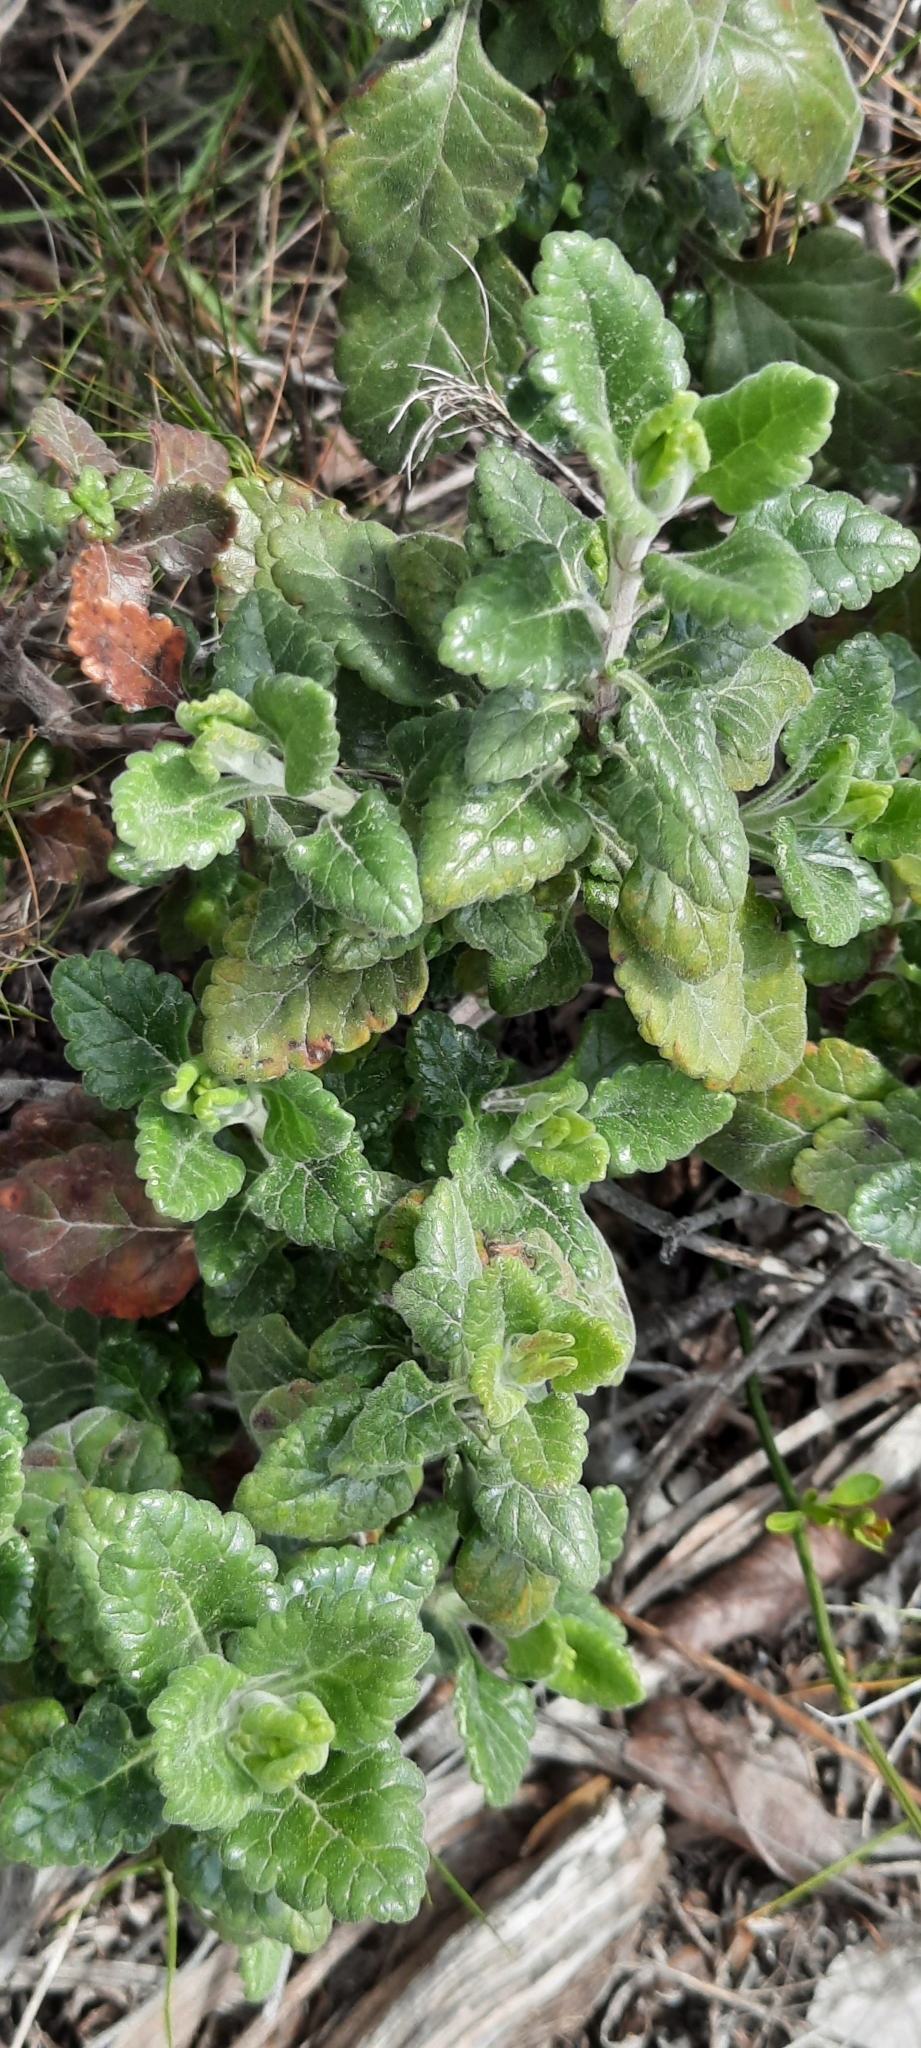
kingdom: Plantae
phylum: Tracheophyta
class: Magnoliopsida
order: Lamiales
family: Lamiaceae
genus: Teucrium
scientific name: Teucrium flavum
